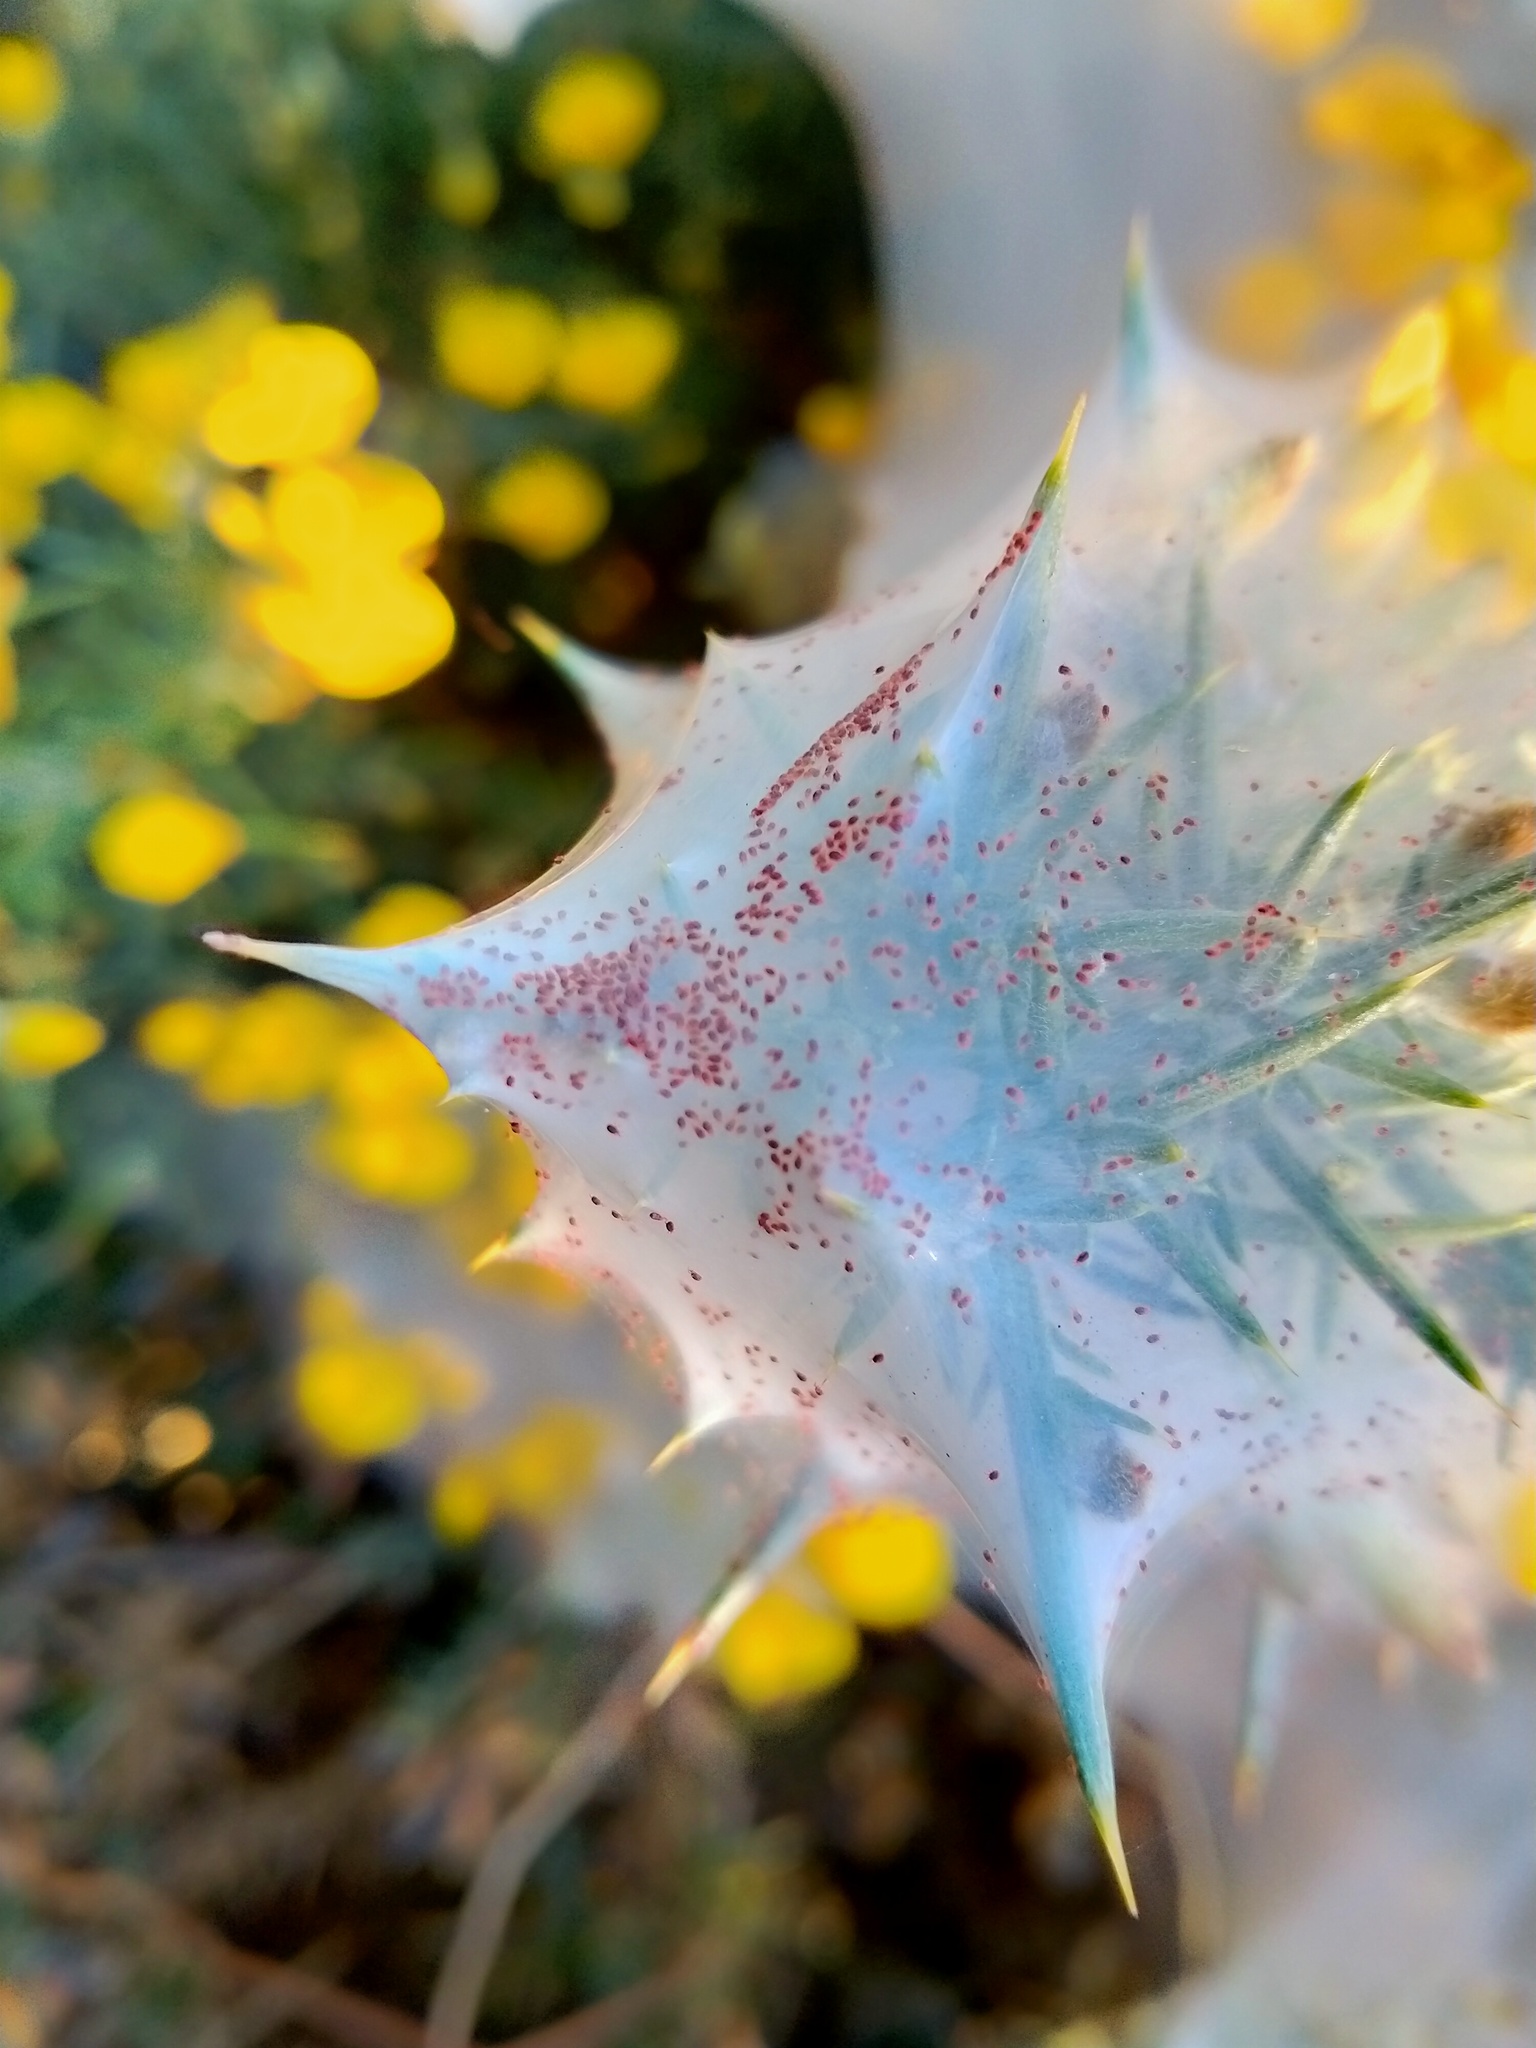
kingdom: Animalia
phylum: Arthropoda
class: Arachnida
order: Trombidiformes
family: Tetranychidae
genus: Tetranychus
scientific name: Tetranychus lintearius
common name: Gorse spider mite
